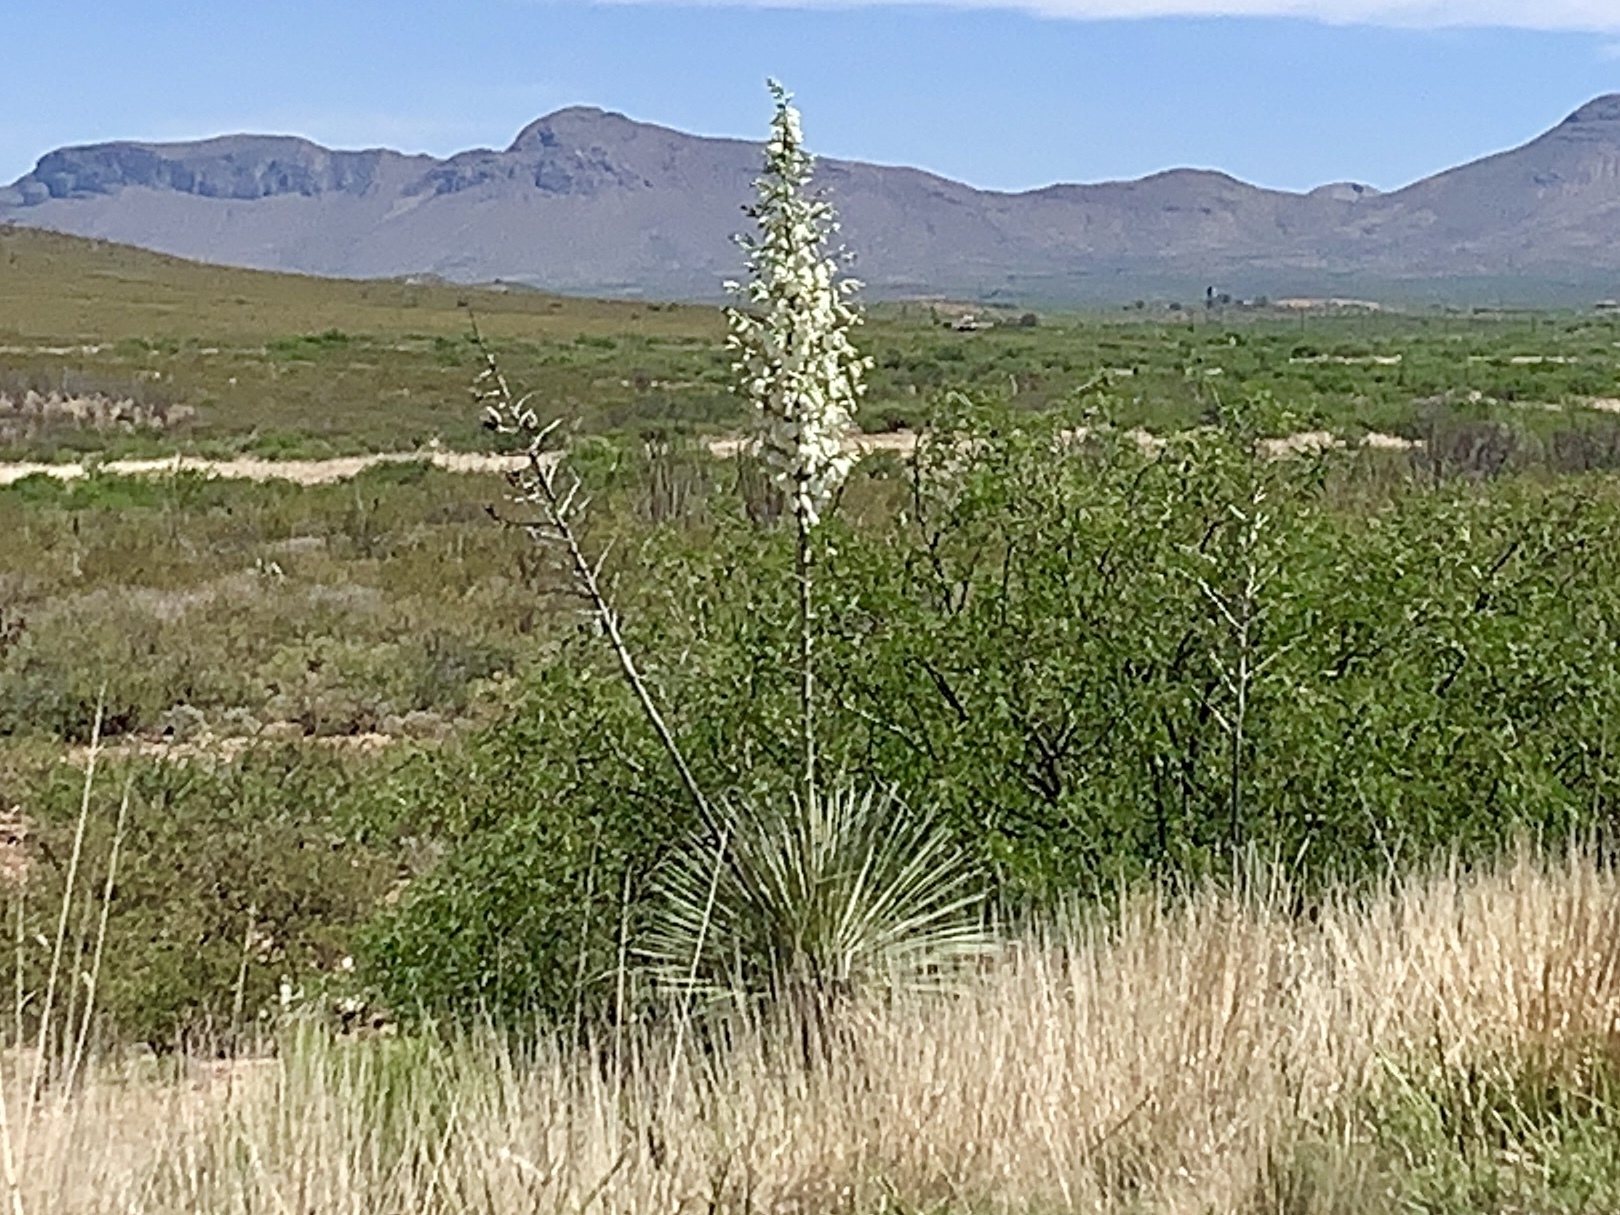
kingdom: Plantae
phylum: Tracheophyta
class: Liliopsida
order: Asparagales
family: Asparagaceae
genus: Yucca
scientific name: Yucca elata
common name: Palmella
